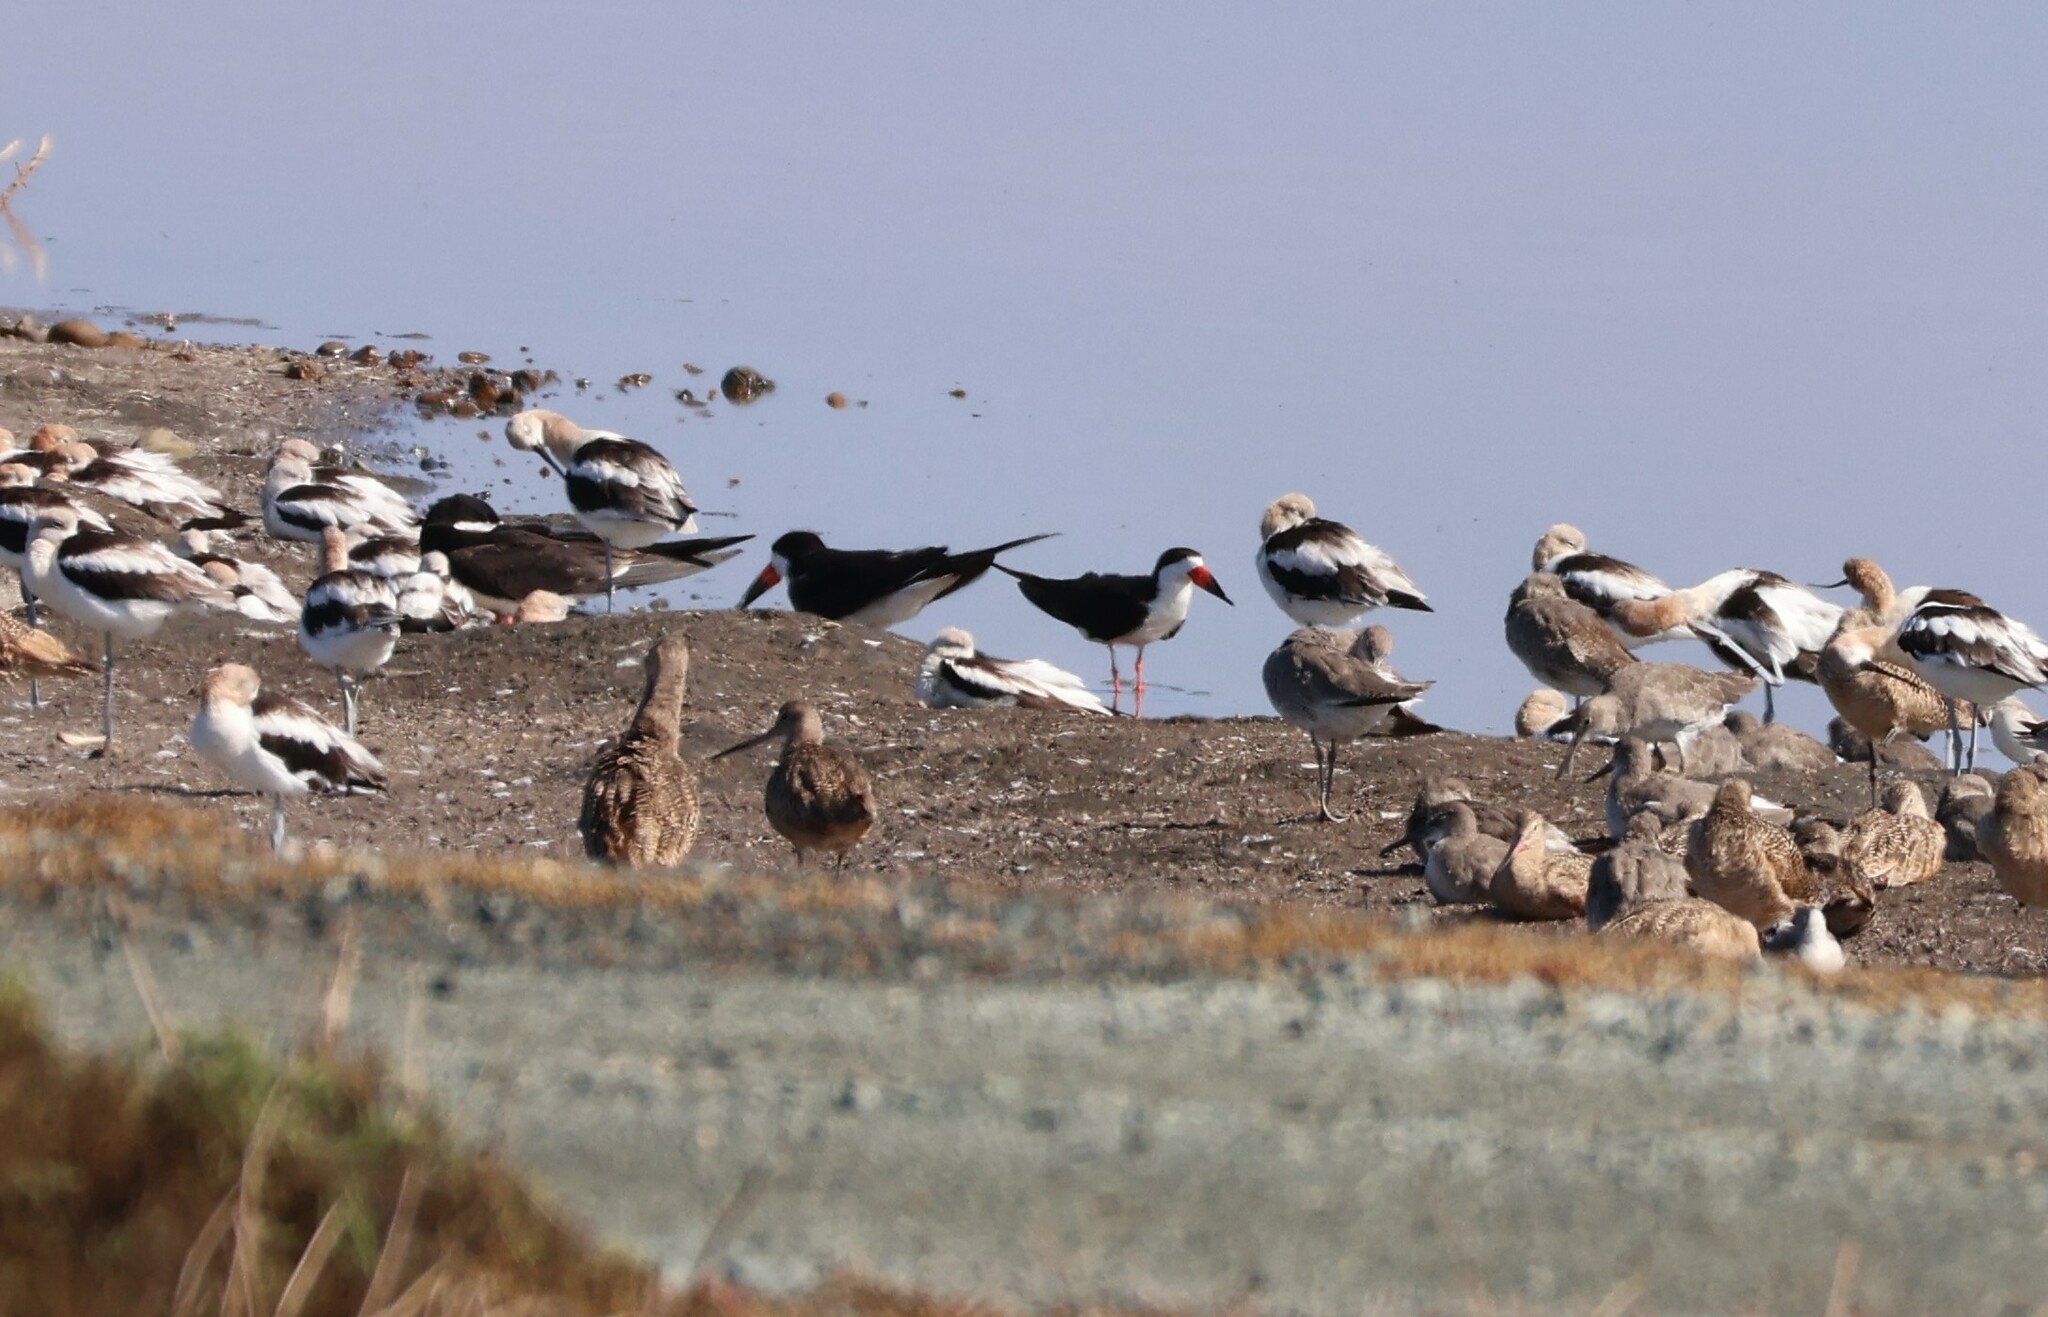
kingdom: Animalia
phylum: Chordata
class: Aves
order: Charadriiformes
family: Laridae
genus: Rynchops
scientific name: Rynchops niger
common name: Black skimmer
